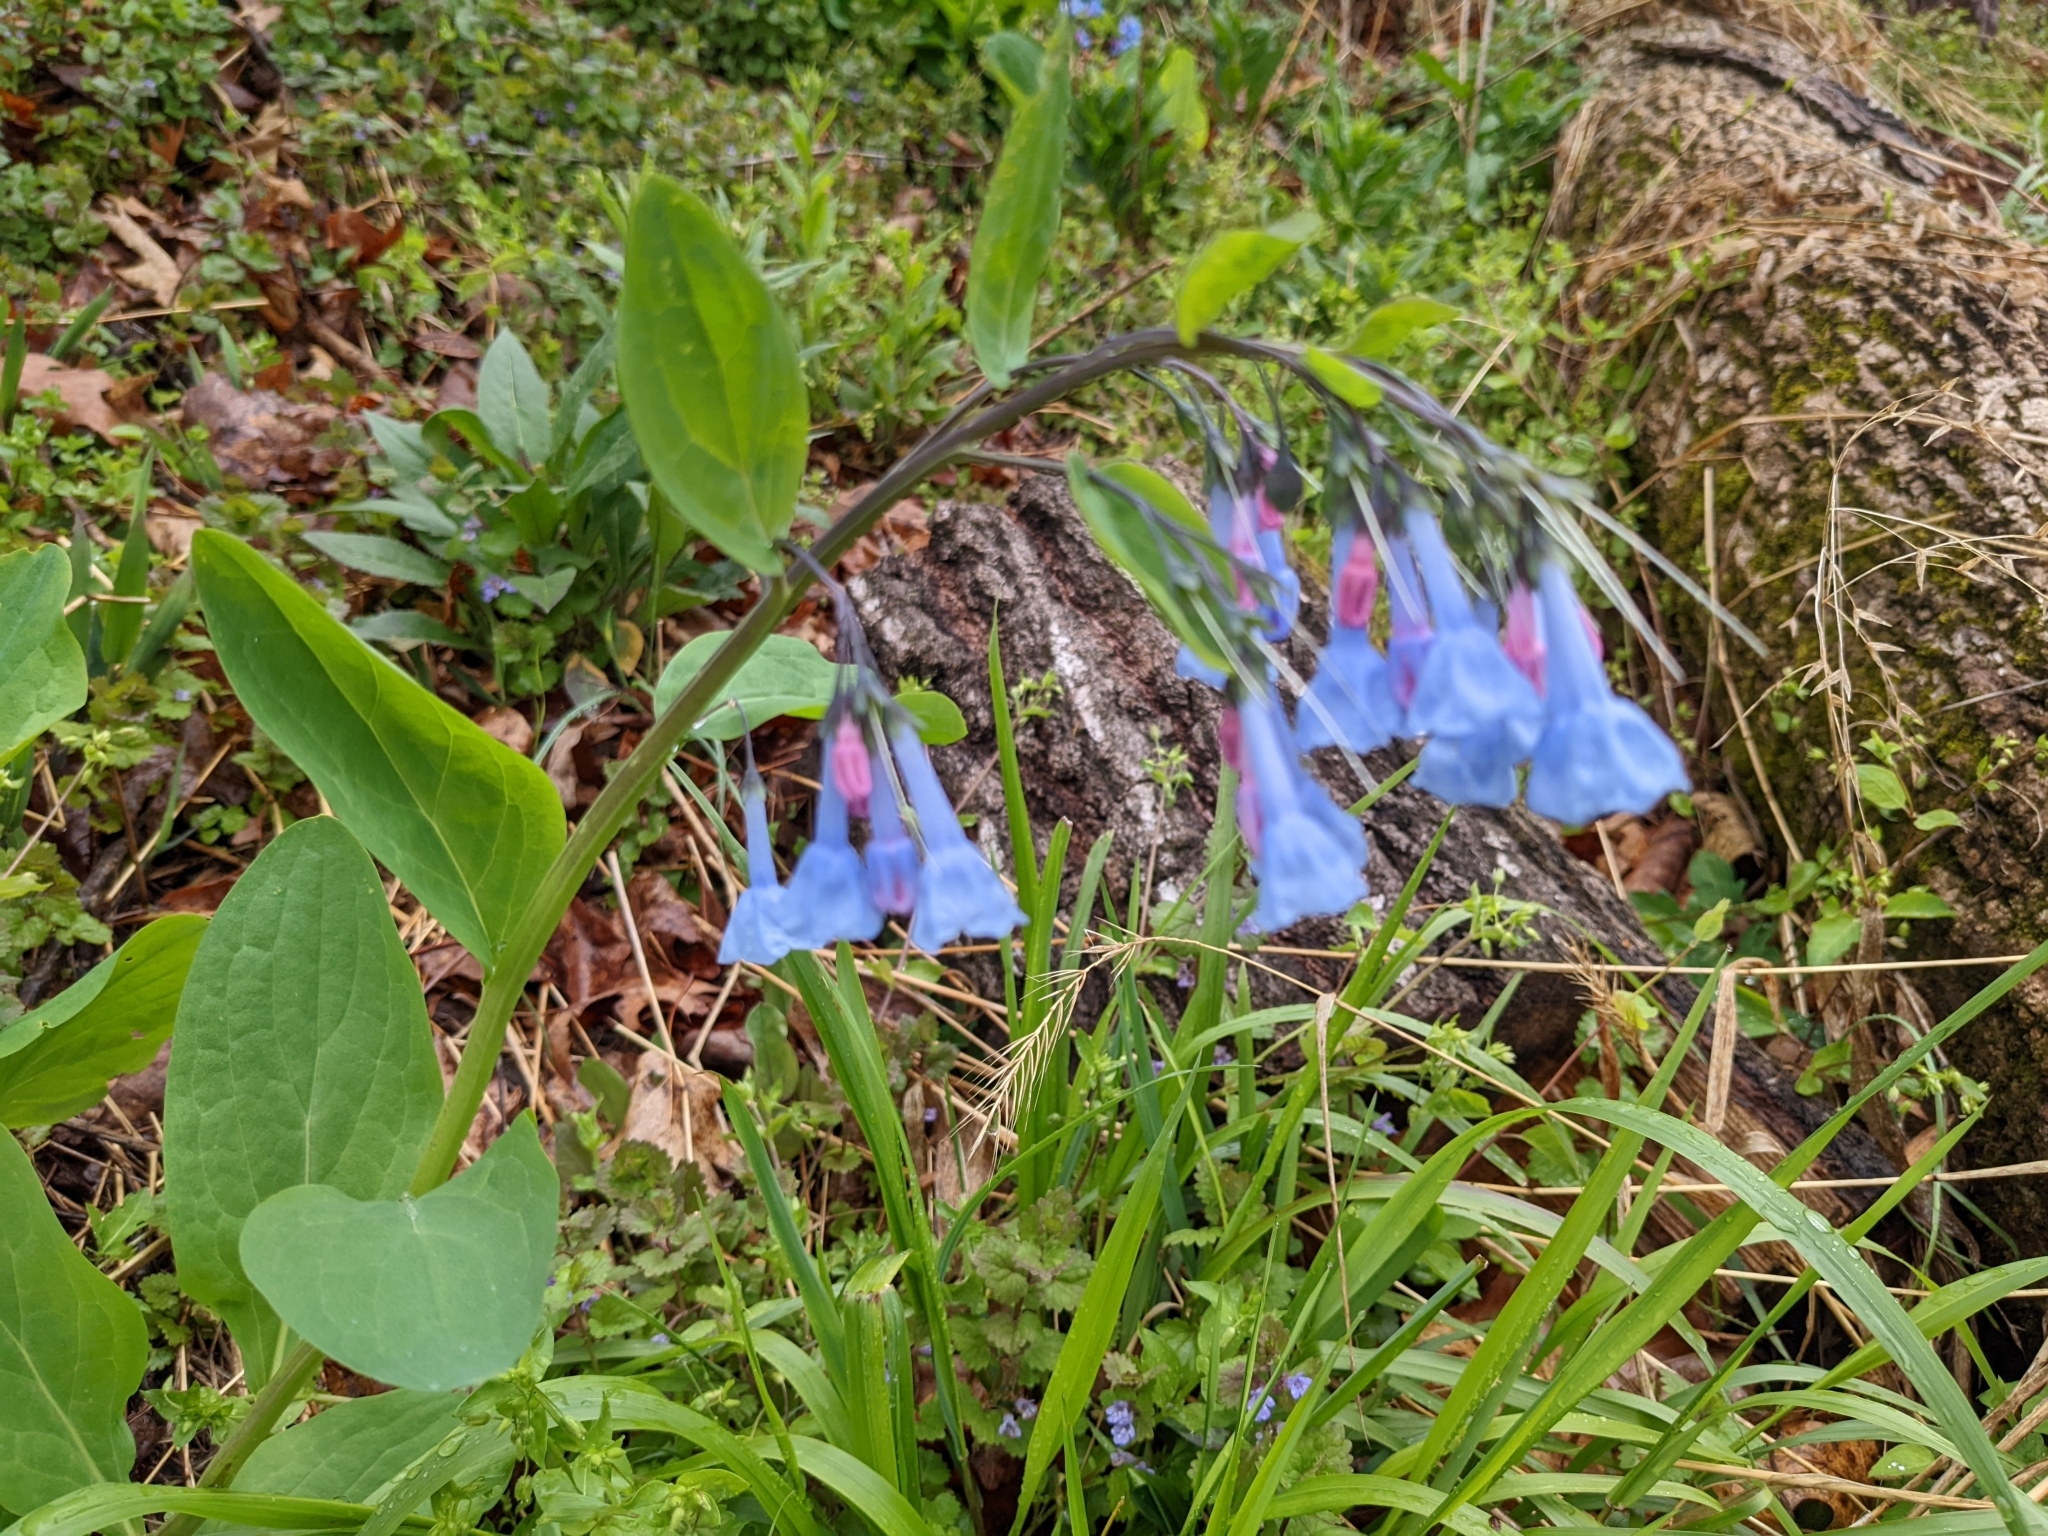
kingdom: Plantae
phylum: Tracheophyta
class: Magnoliopsida
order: Boraginales
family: Boraginaceae
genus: Mertensia
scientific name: Mertensia virginica
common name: Virginia bluebells
